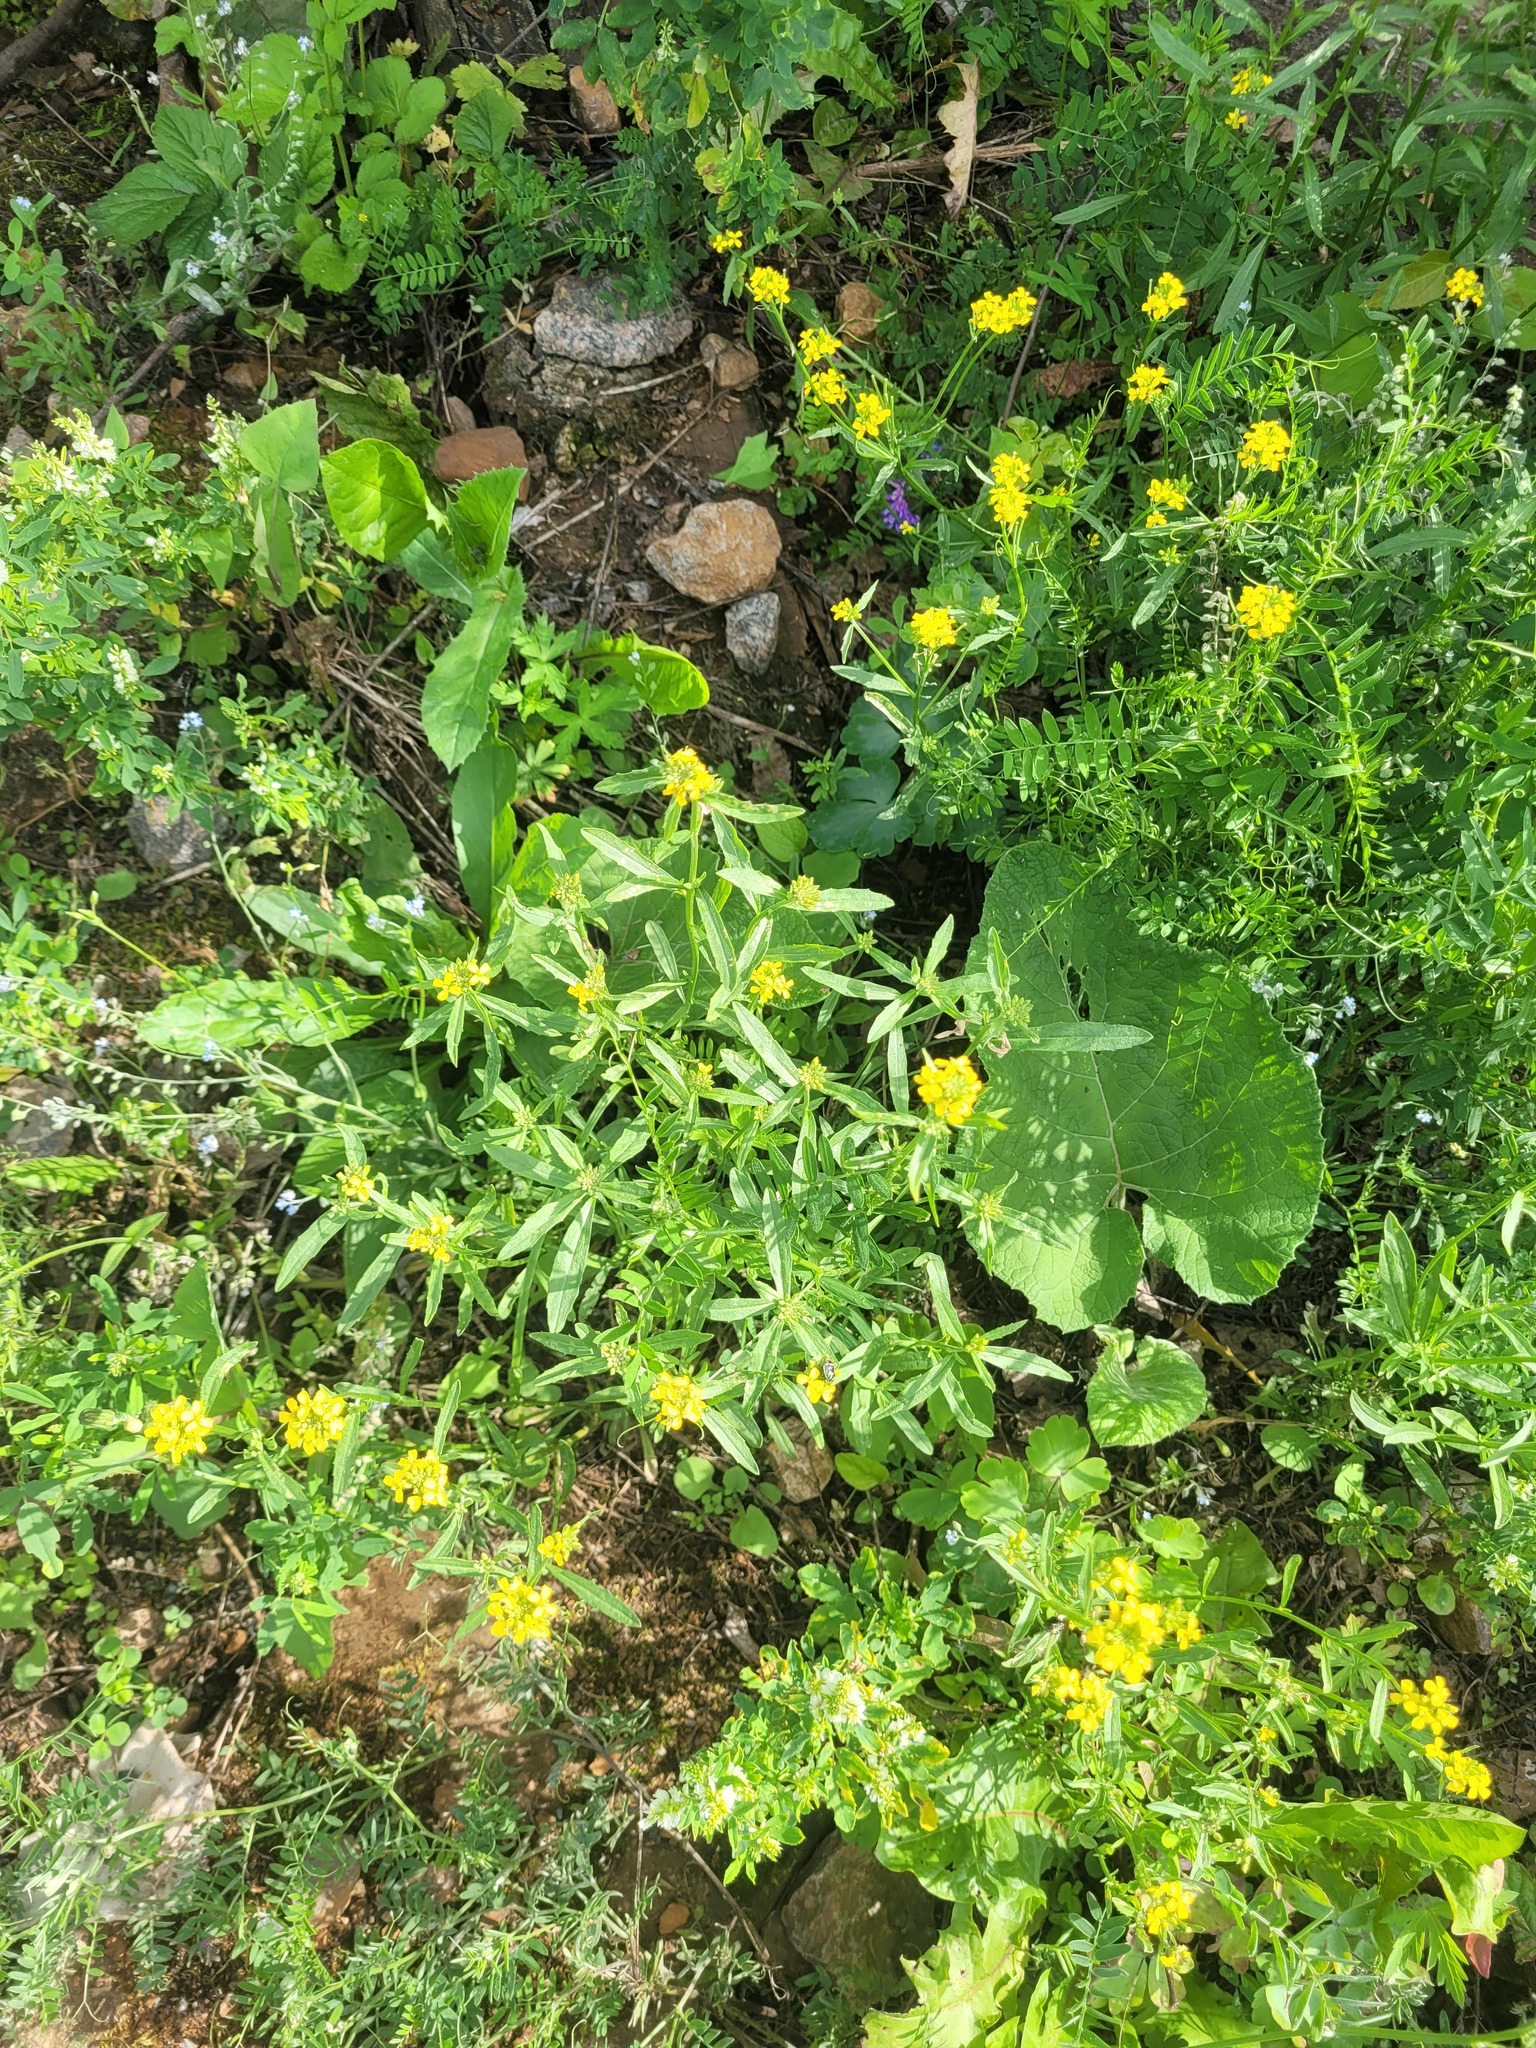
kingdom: Plantae
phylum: Tracheophyta
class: Magnoliopsida
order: Brassicales
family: Brassicaceae
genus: Erysimum
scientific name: Erysimum hieraciifolium
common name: European wallflower
